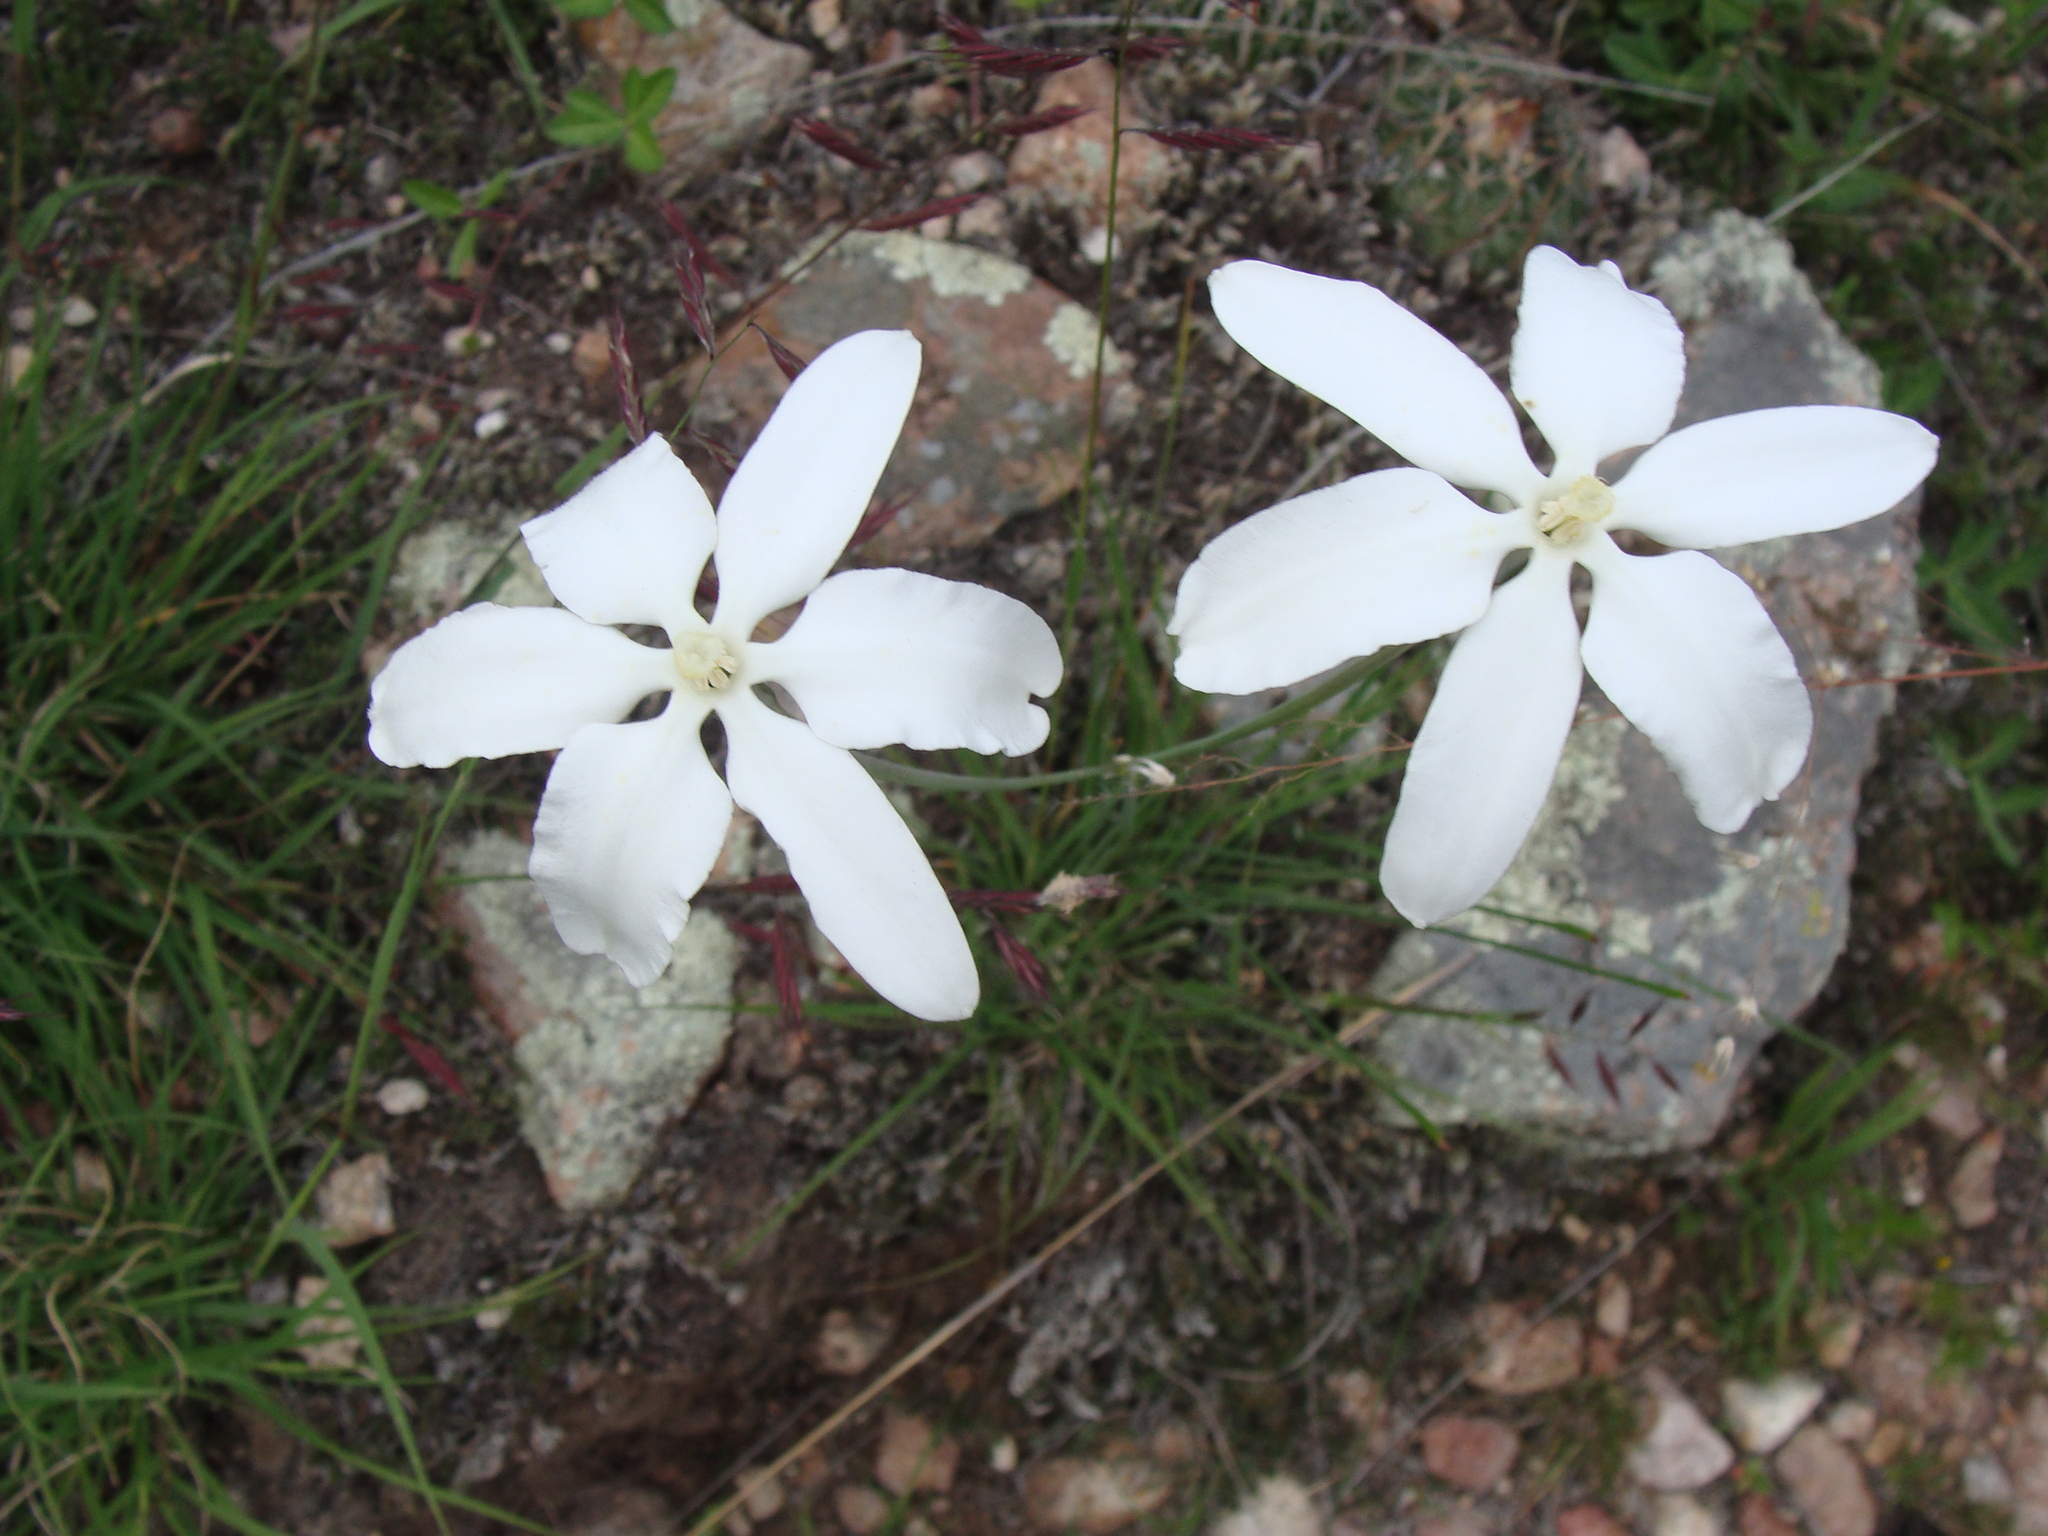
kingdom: Plantae
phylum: Tracheophyta
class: Liliopsida
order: Asparagales
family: Asparagaceae
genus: Milla
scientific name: Milla biflora
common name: Mexican-star
